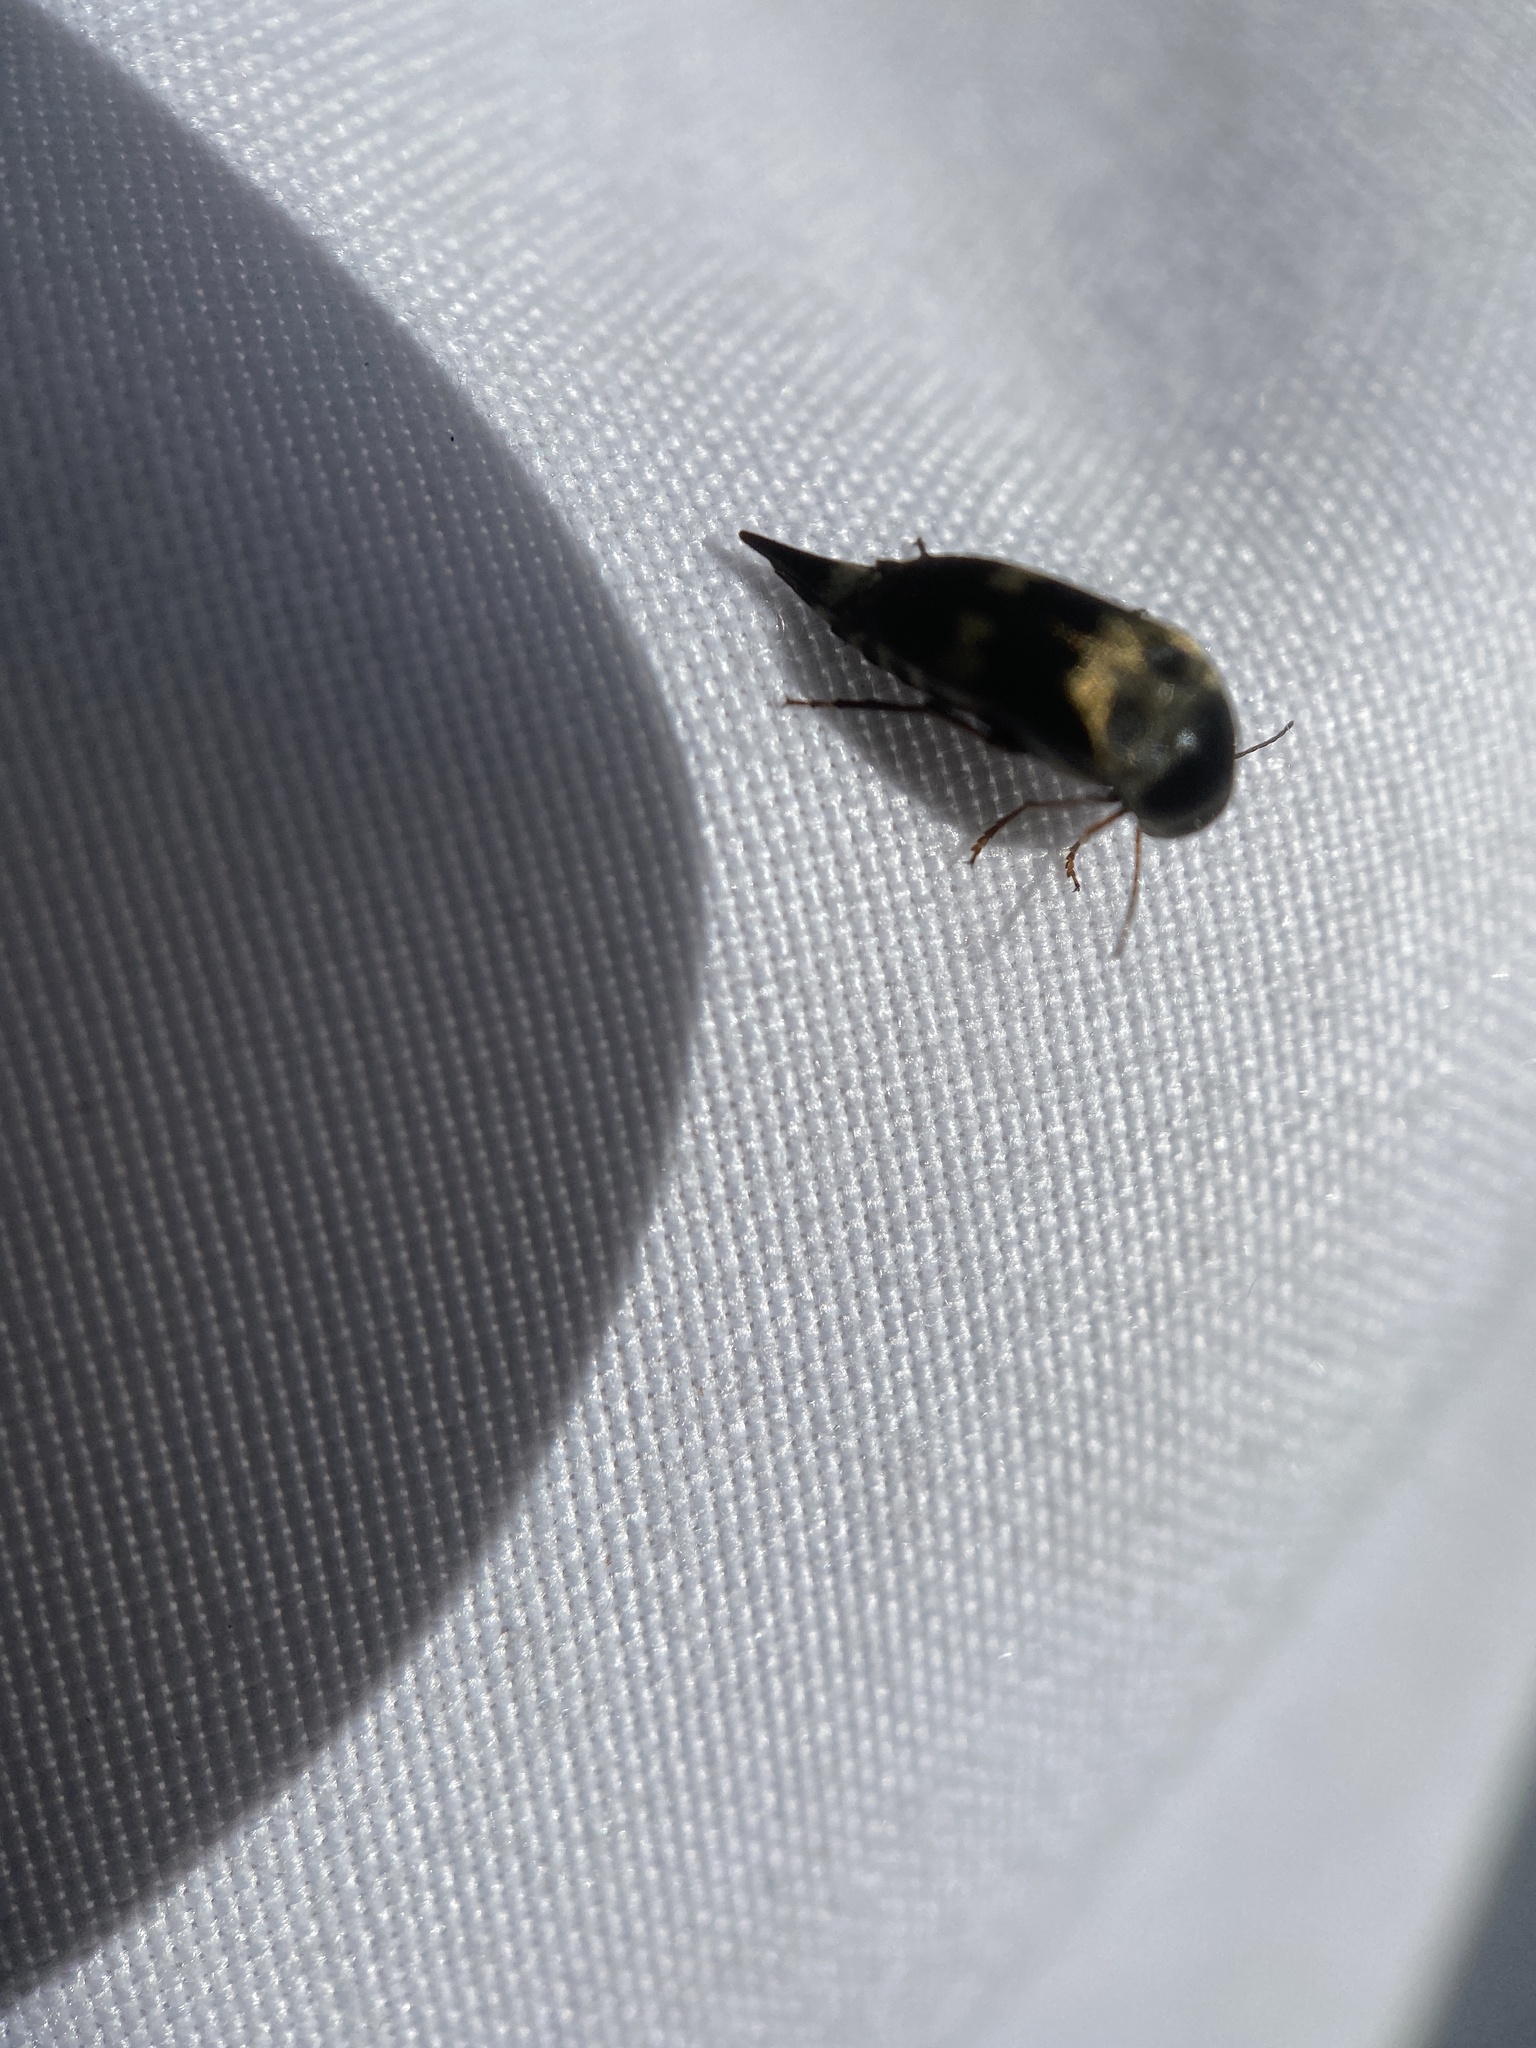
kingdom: Animalia
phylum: Arthropoda
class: Insecta
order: Coleoptera
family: Mordellidae
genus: Glipa
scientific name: Glipa oculata
